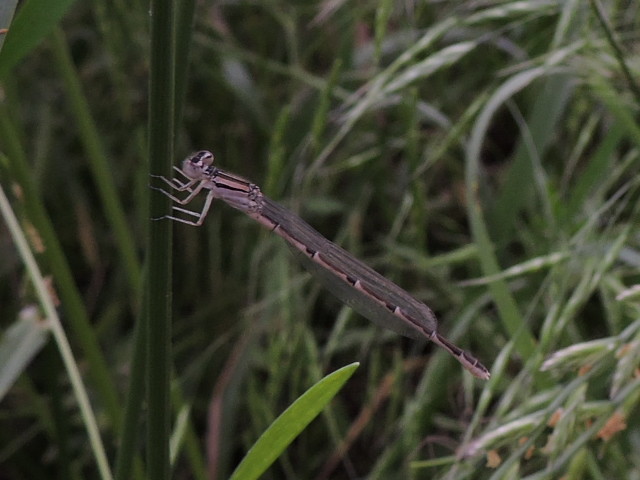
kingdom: Animalia
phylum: Arthropoda
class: Insecta
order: Odonata
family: Coenagrionidae
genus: Enallagma
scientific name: Enallagma civile
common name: Damselfly
